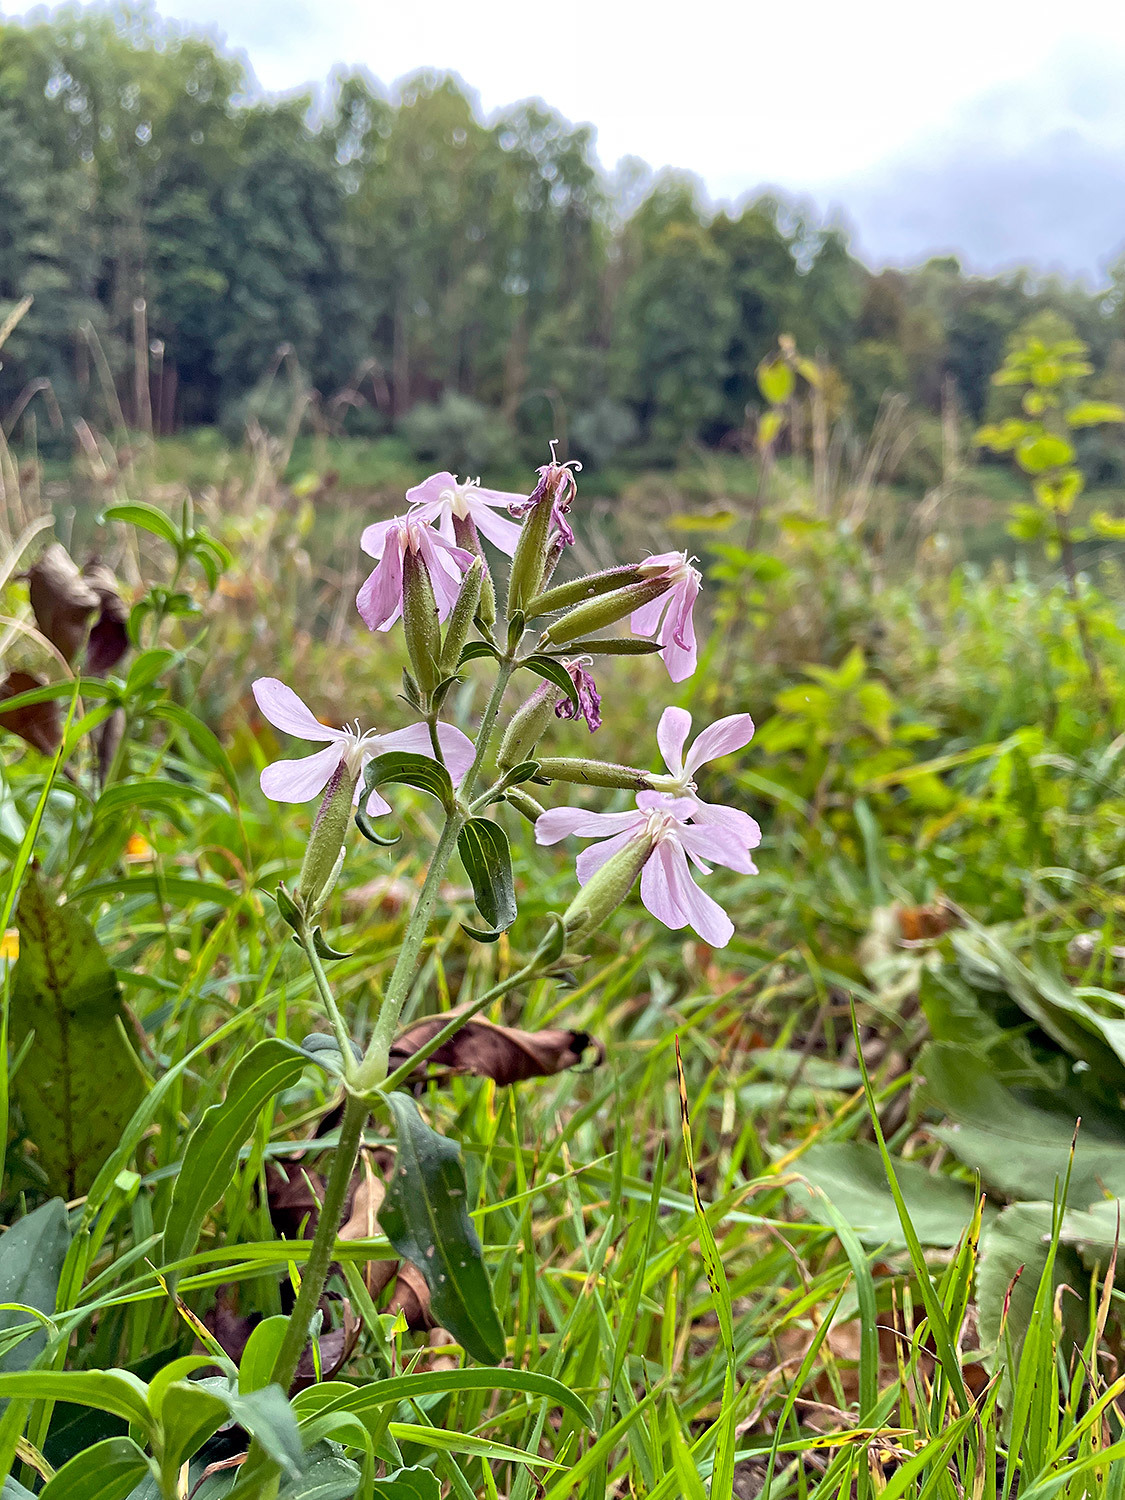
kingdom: Plantae
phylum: Tracheophyta
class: Magnoliopsida
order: Caryophyllales
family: Caryophyllaceae
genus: Saponaria
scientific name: Saponaria officinalis
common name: Soapwort
